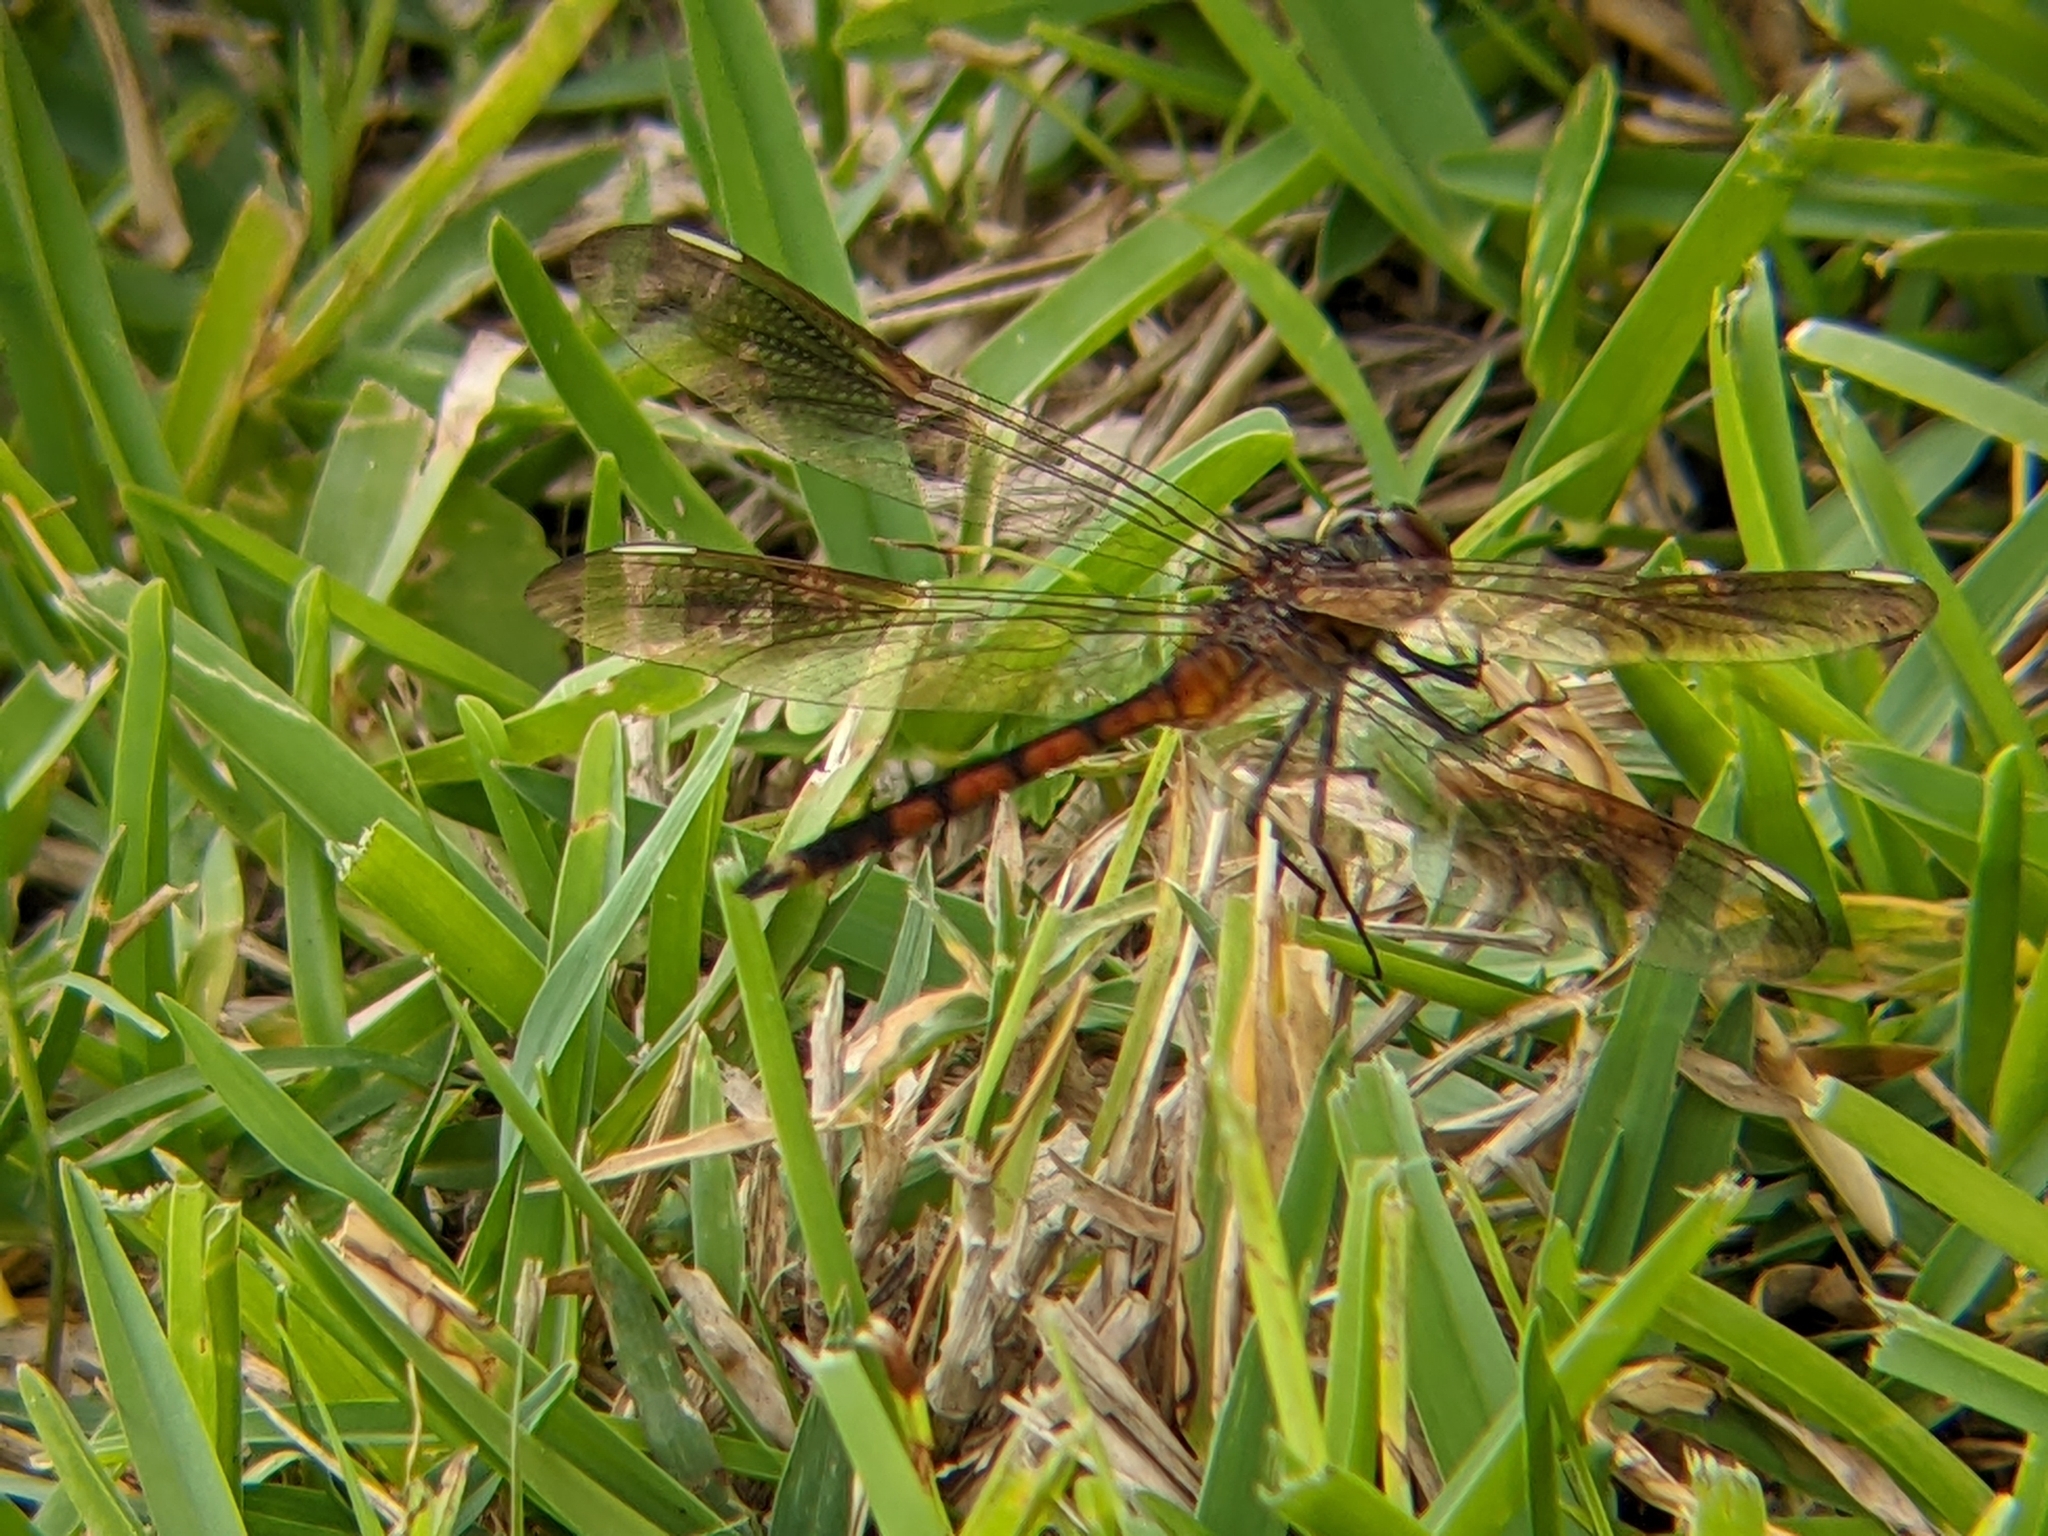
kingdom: Animalia
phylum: Arthropoda
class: Insecta
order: Odonata
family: Libellulidae
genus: Brachymesia
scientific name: Brachymesia gravida
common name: Four-spotted pennant
